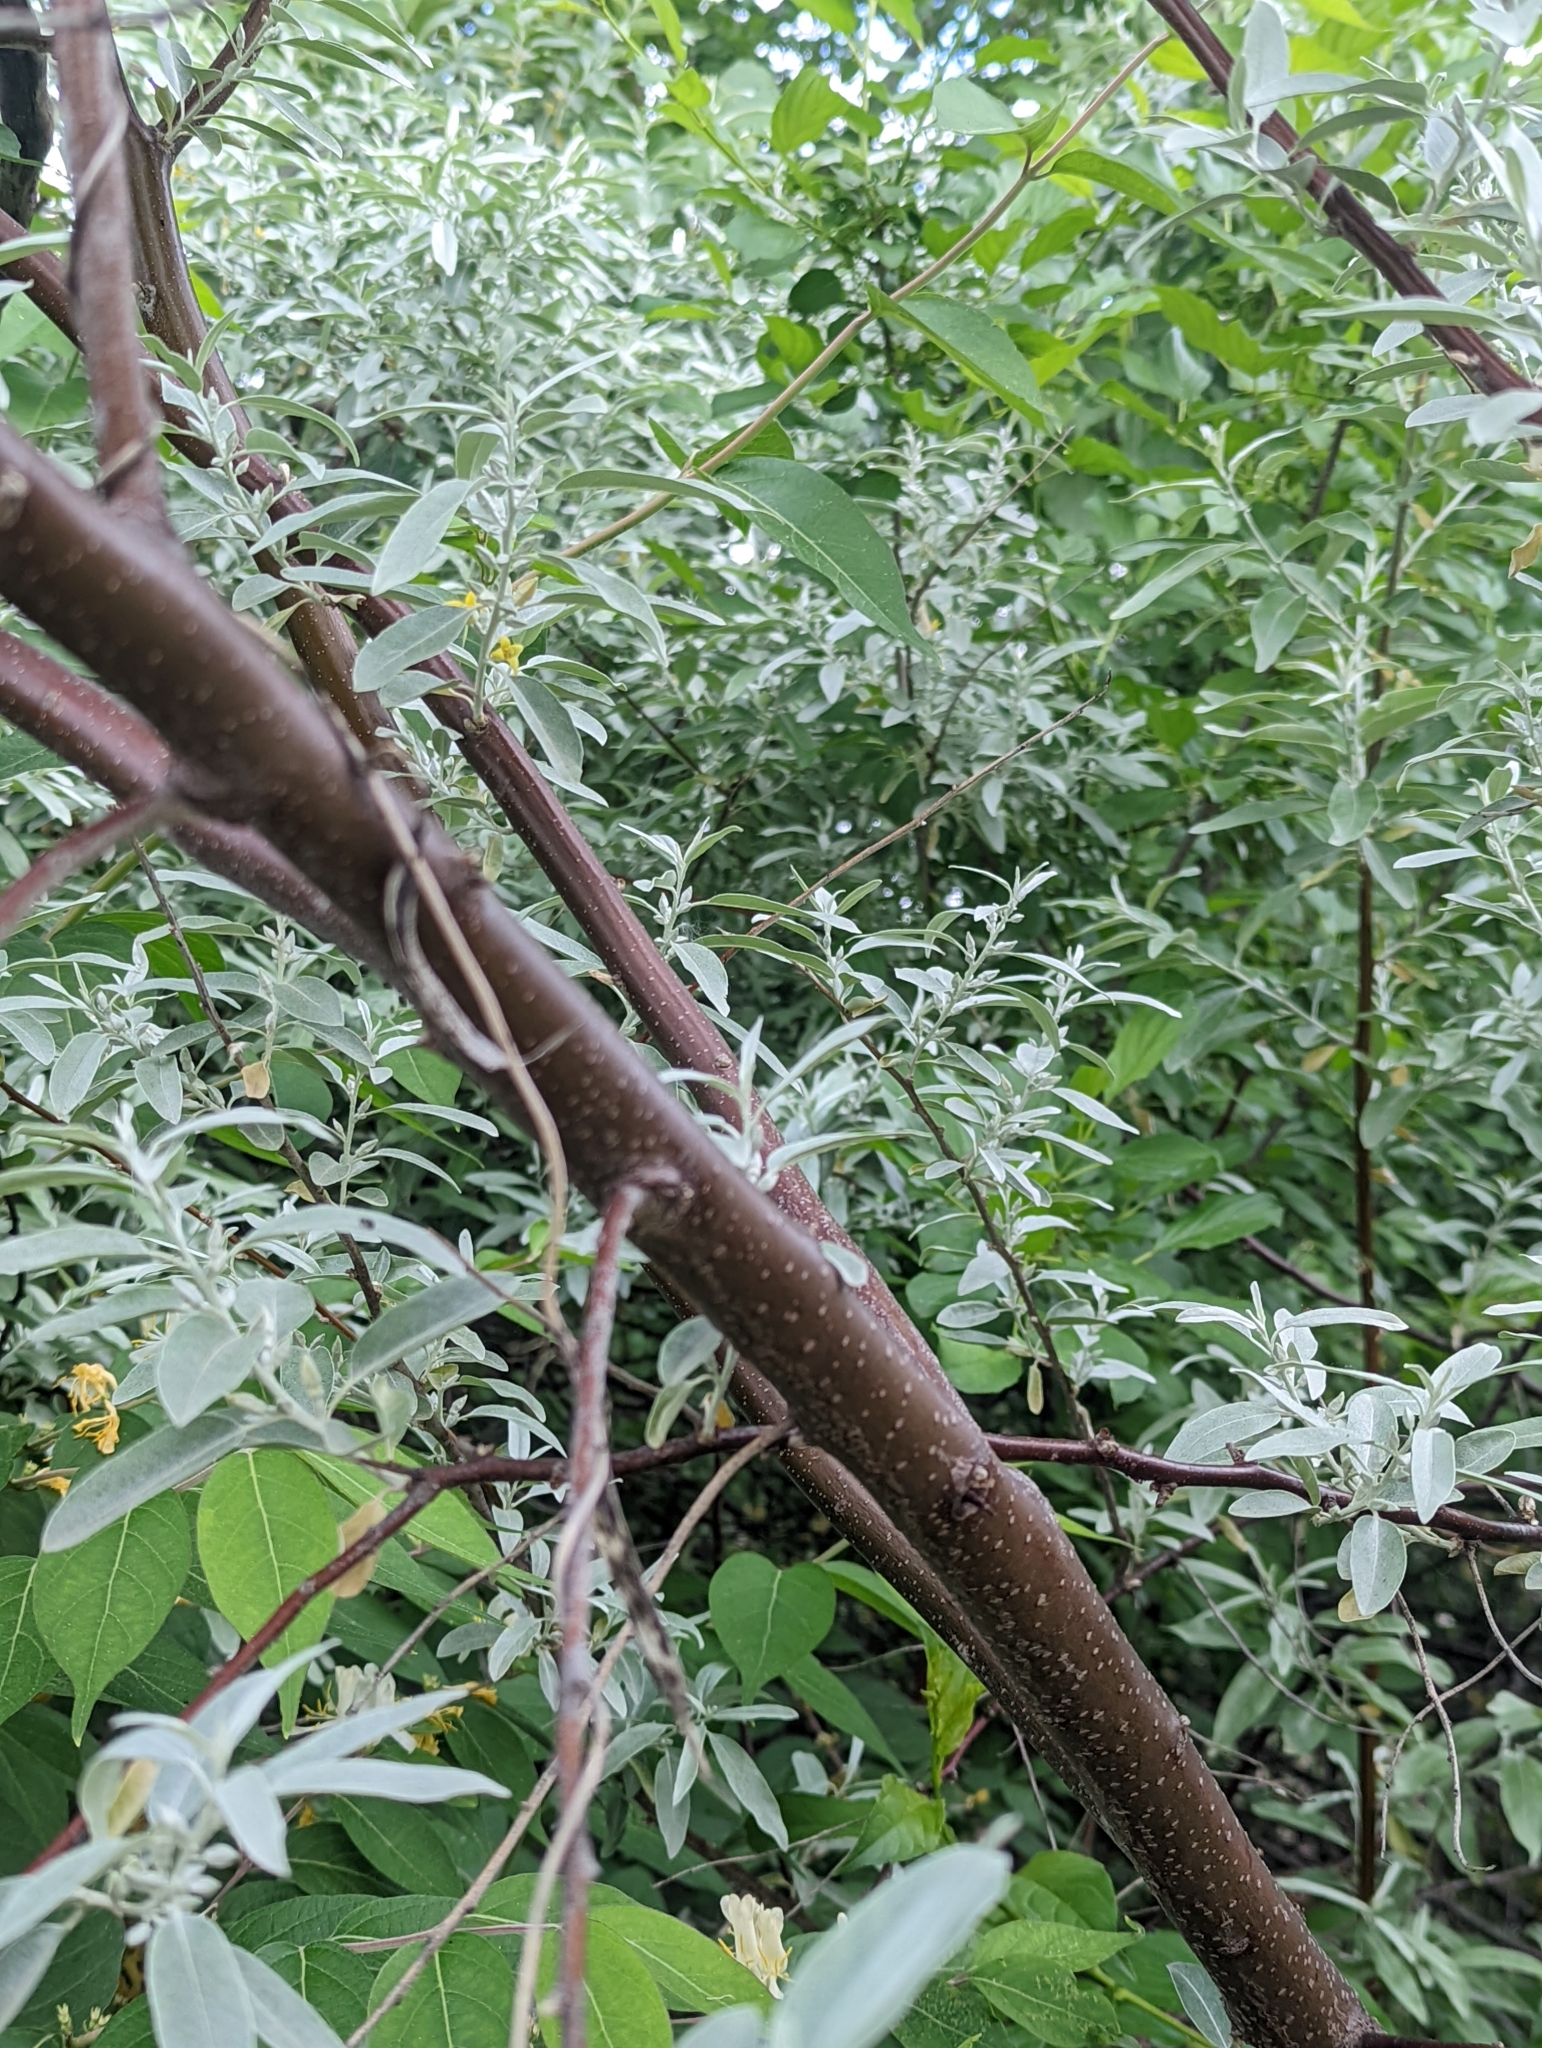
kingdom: Plantae
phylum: Tracheophyta
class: Magnoliopsida
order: Rosales
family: Elaeagnaceae
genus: Elaeagnus
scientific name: Elaeagnus angustifolia
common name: Russian olive
